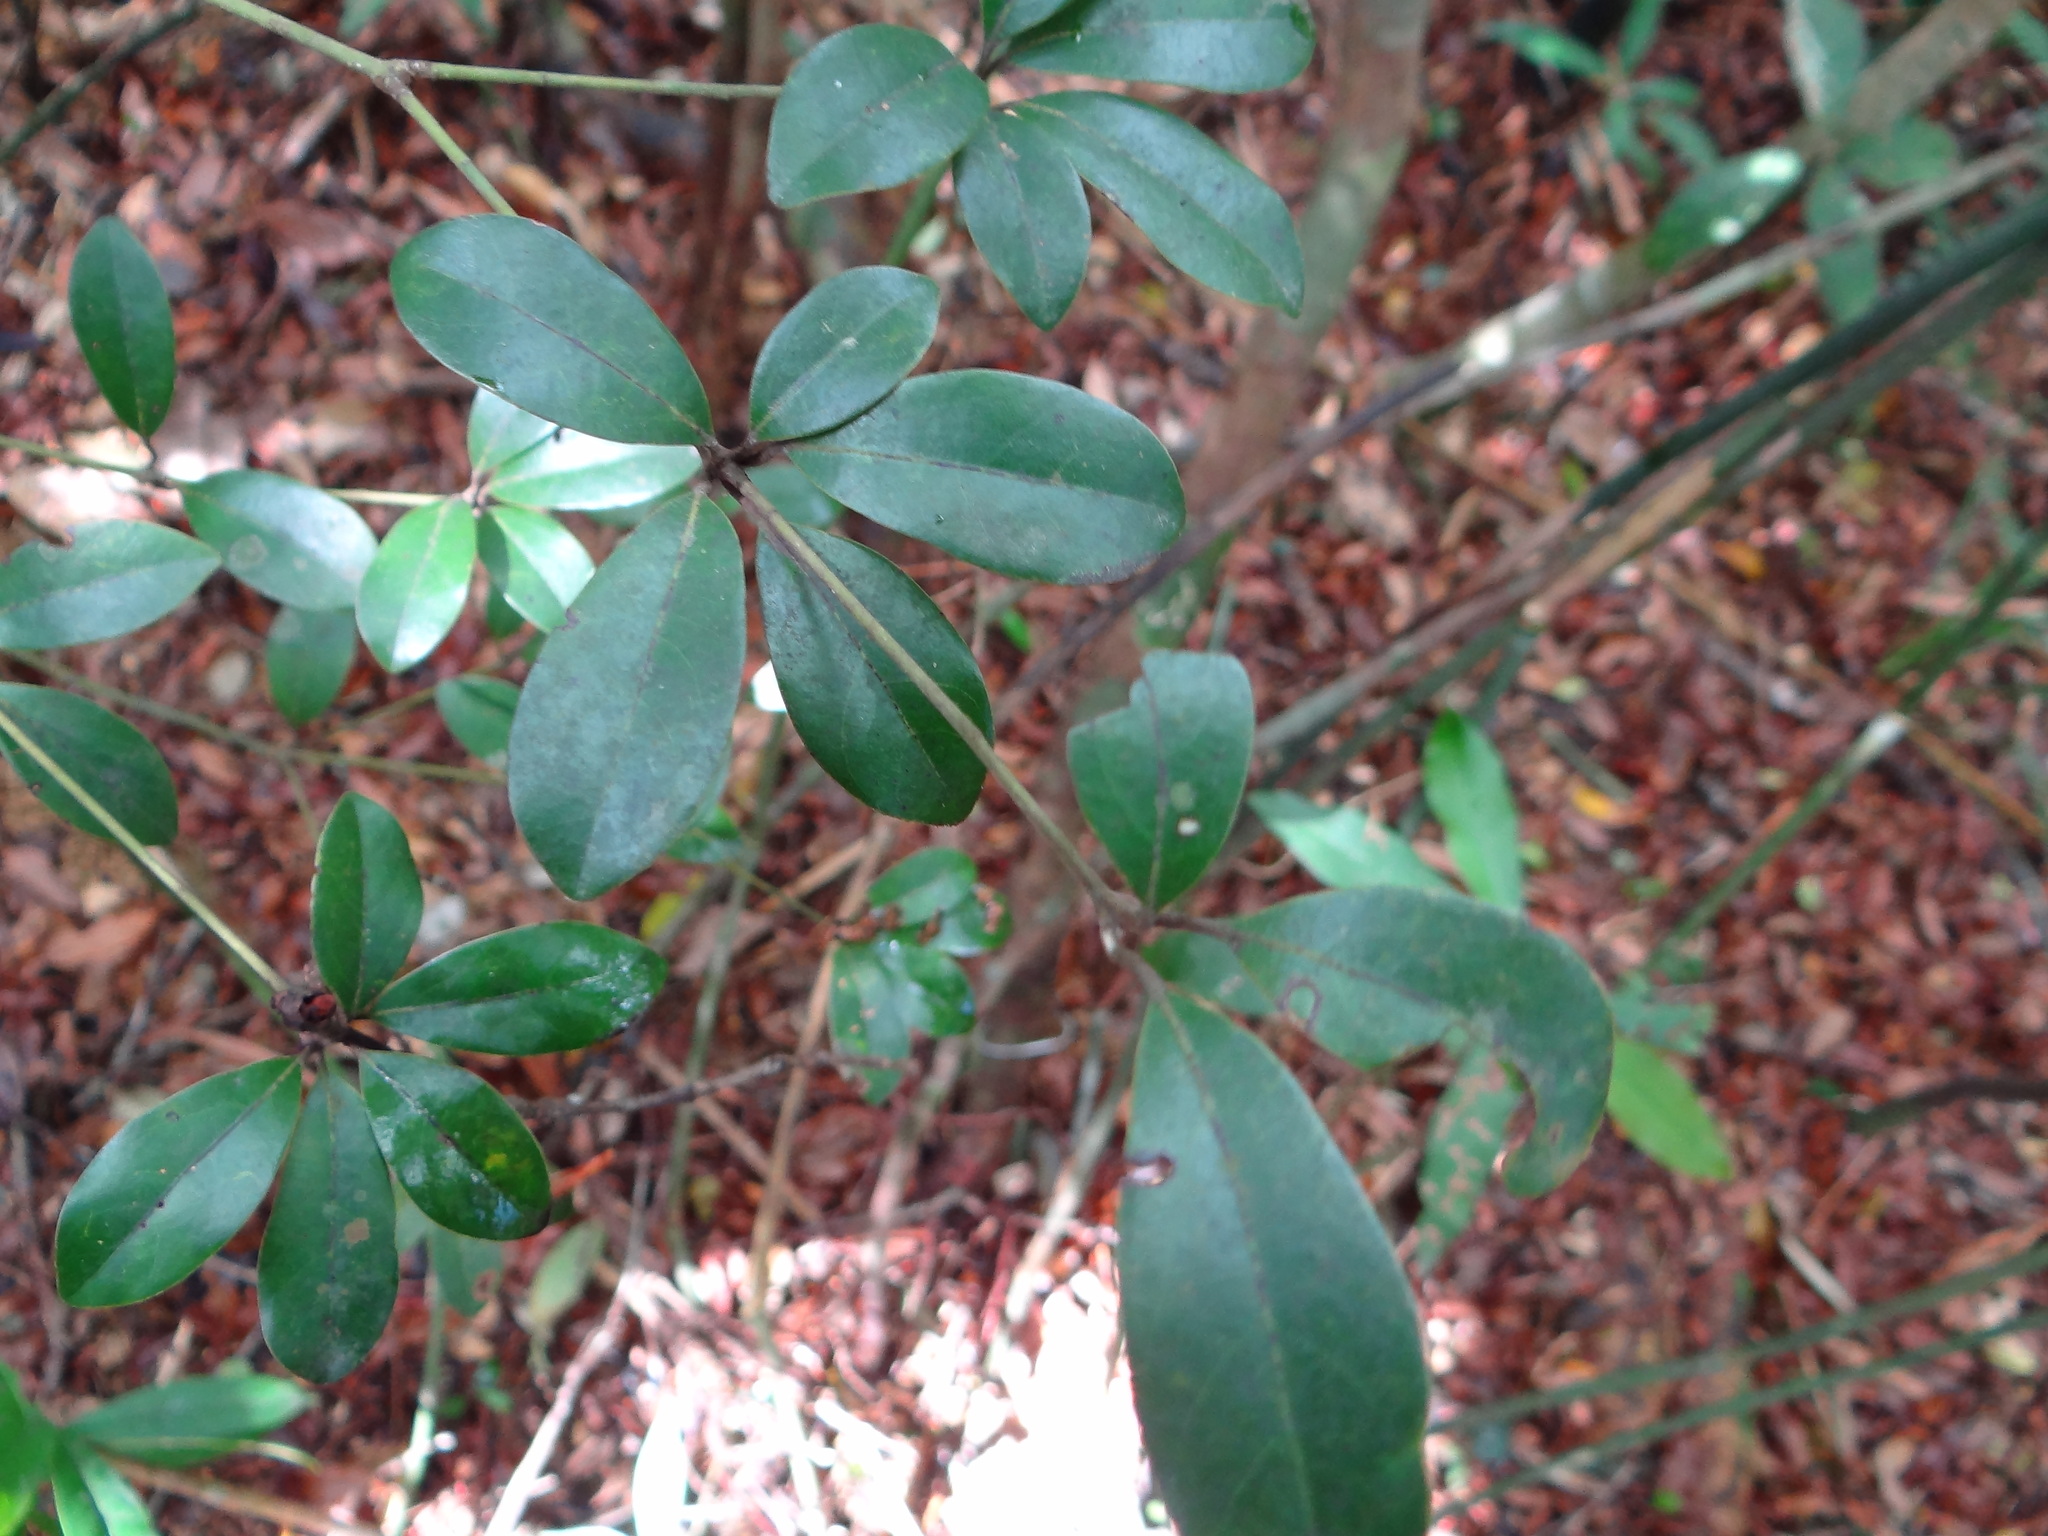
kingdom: Plantae
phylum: Tracheophyta
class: Magnoliopsida
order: Laurales
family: Lauraceae
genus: Neolitsea
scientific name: Neolitsea buisanensis
